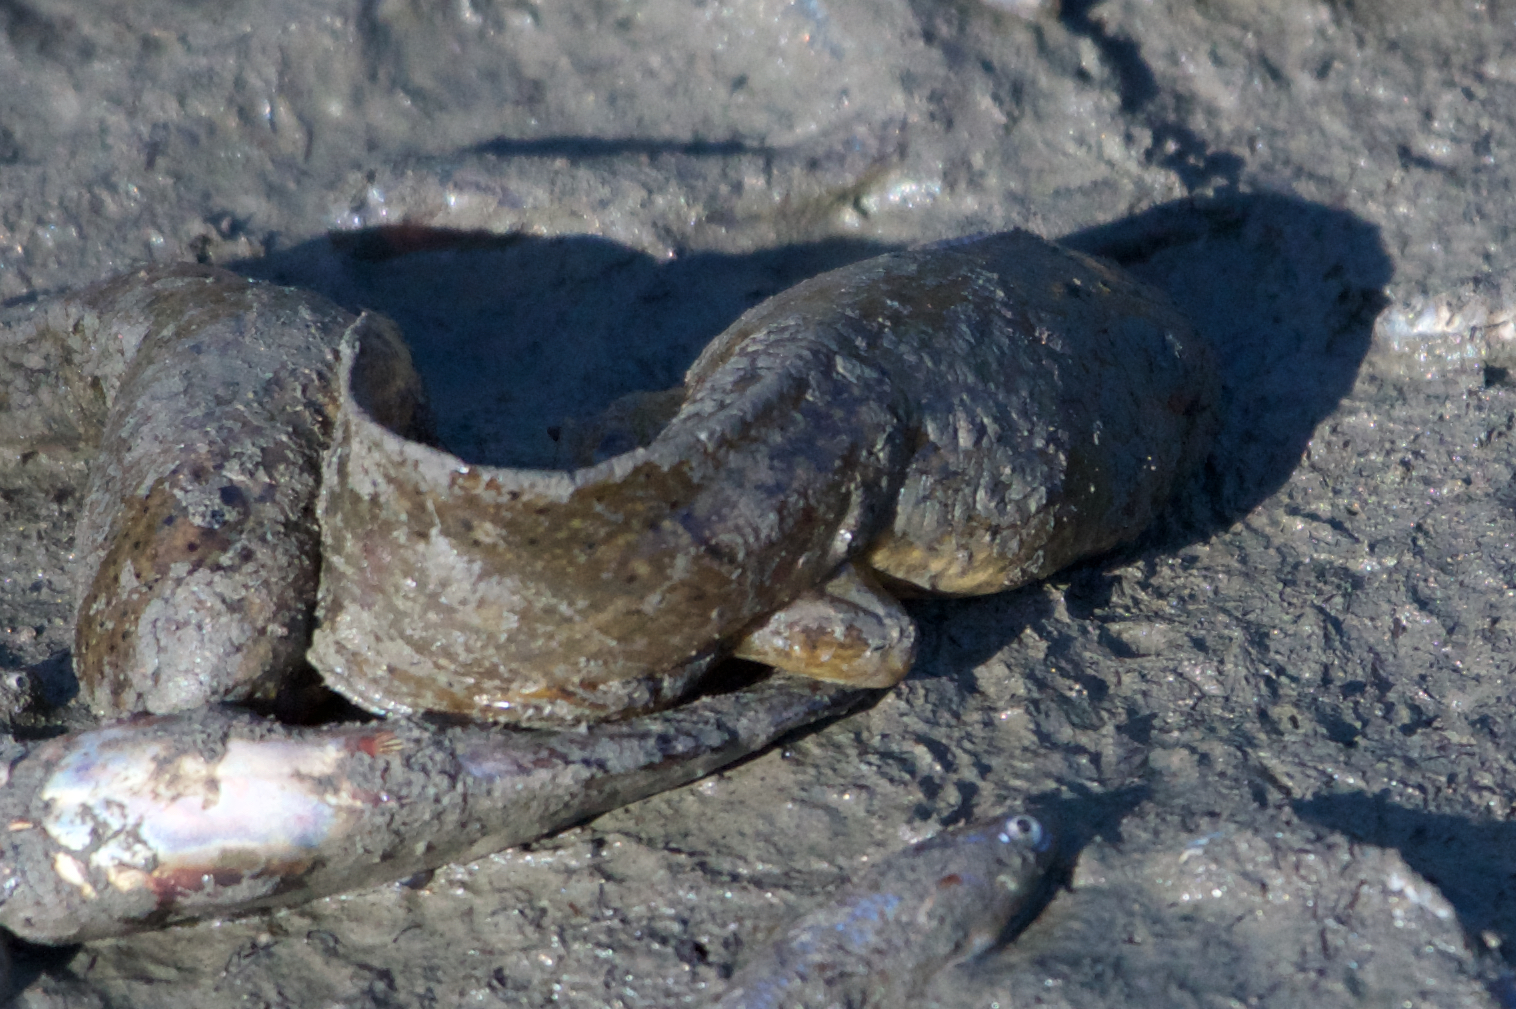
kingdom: Animalia
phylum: Chordata
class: Amphibia
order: Anura
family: Ranidae
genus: Lithobates
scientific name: Lithobates catesbeianus
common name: American bullfrog
